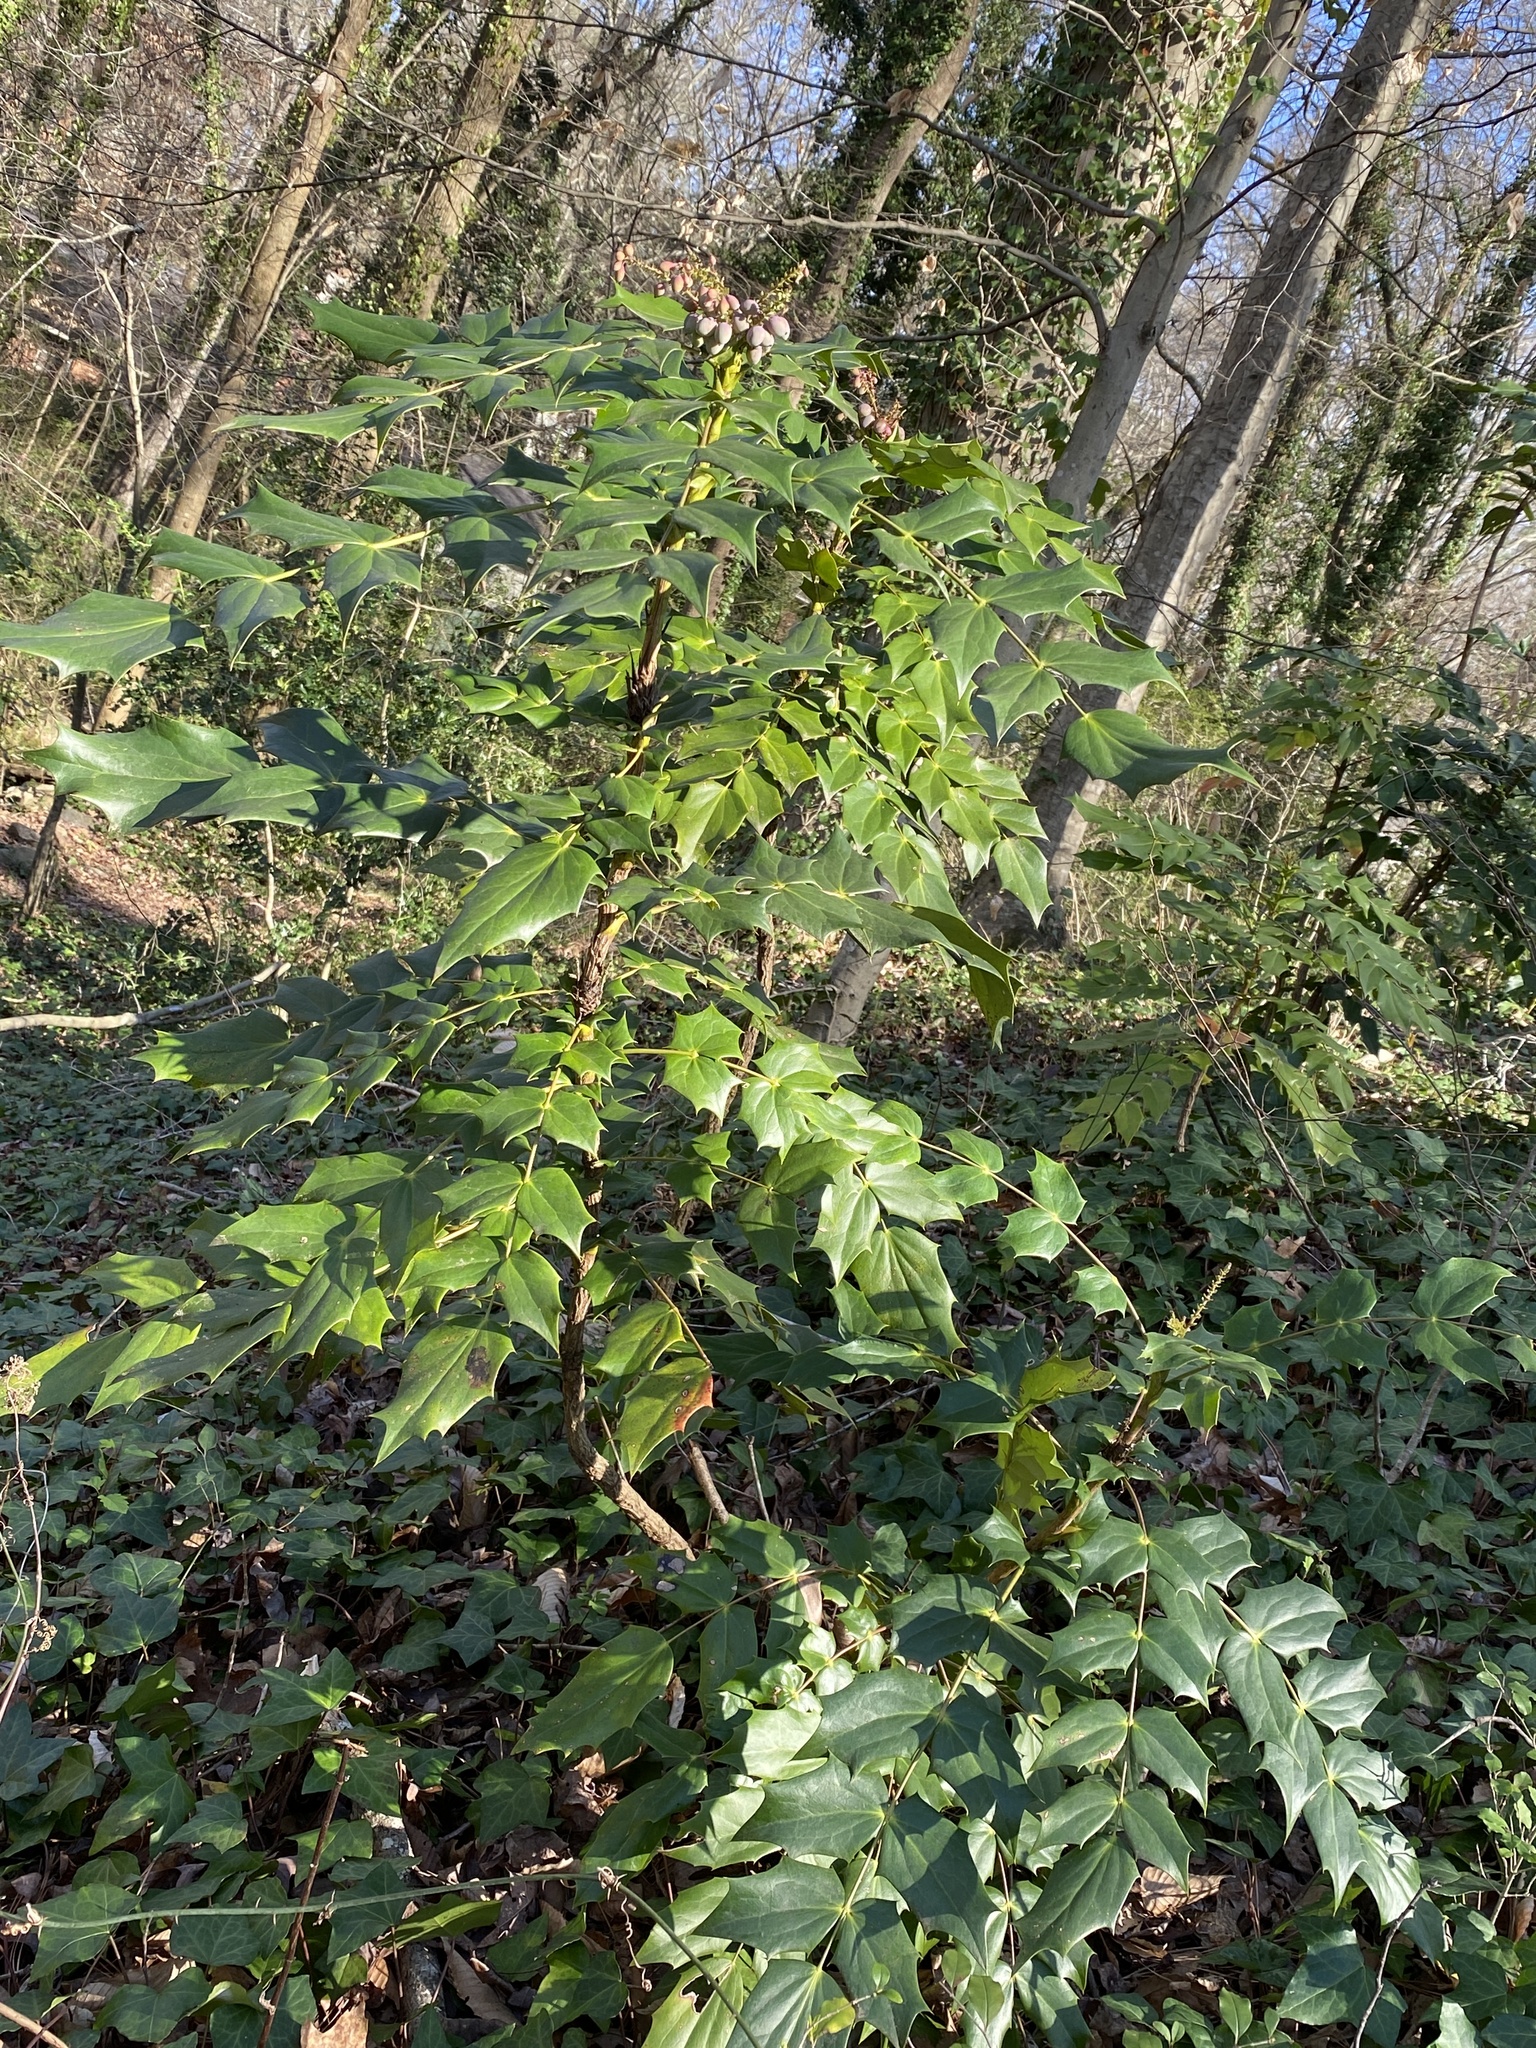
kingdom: Plantae
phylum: Tracheophyta
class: Magnoliopsida
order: Ranunculales
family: Berberidaceae
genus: Mahonia
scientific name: Mahonia bealei
